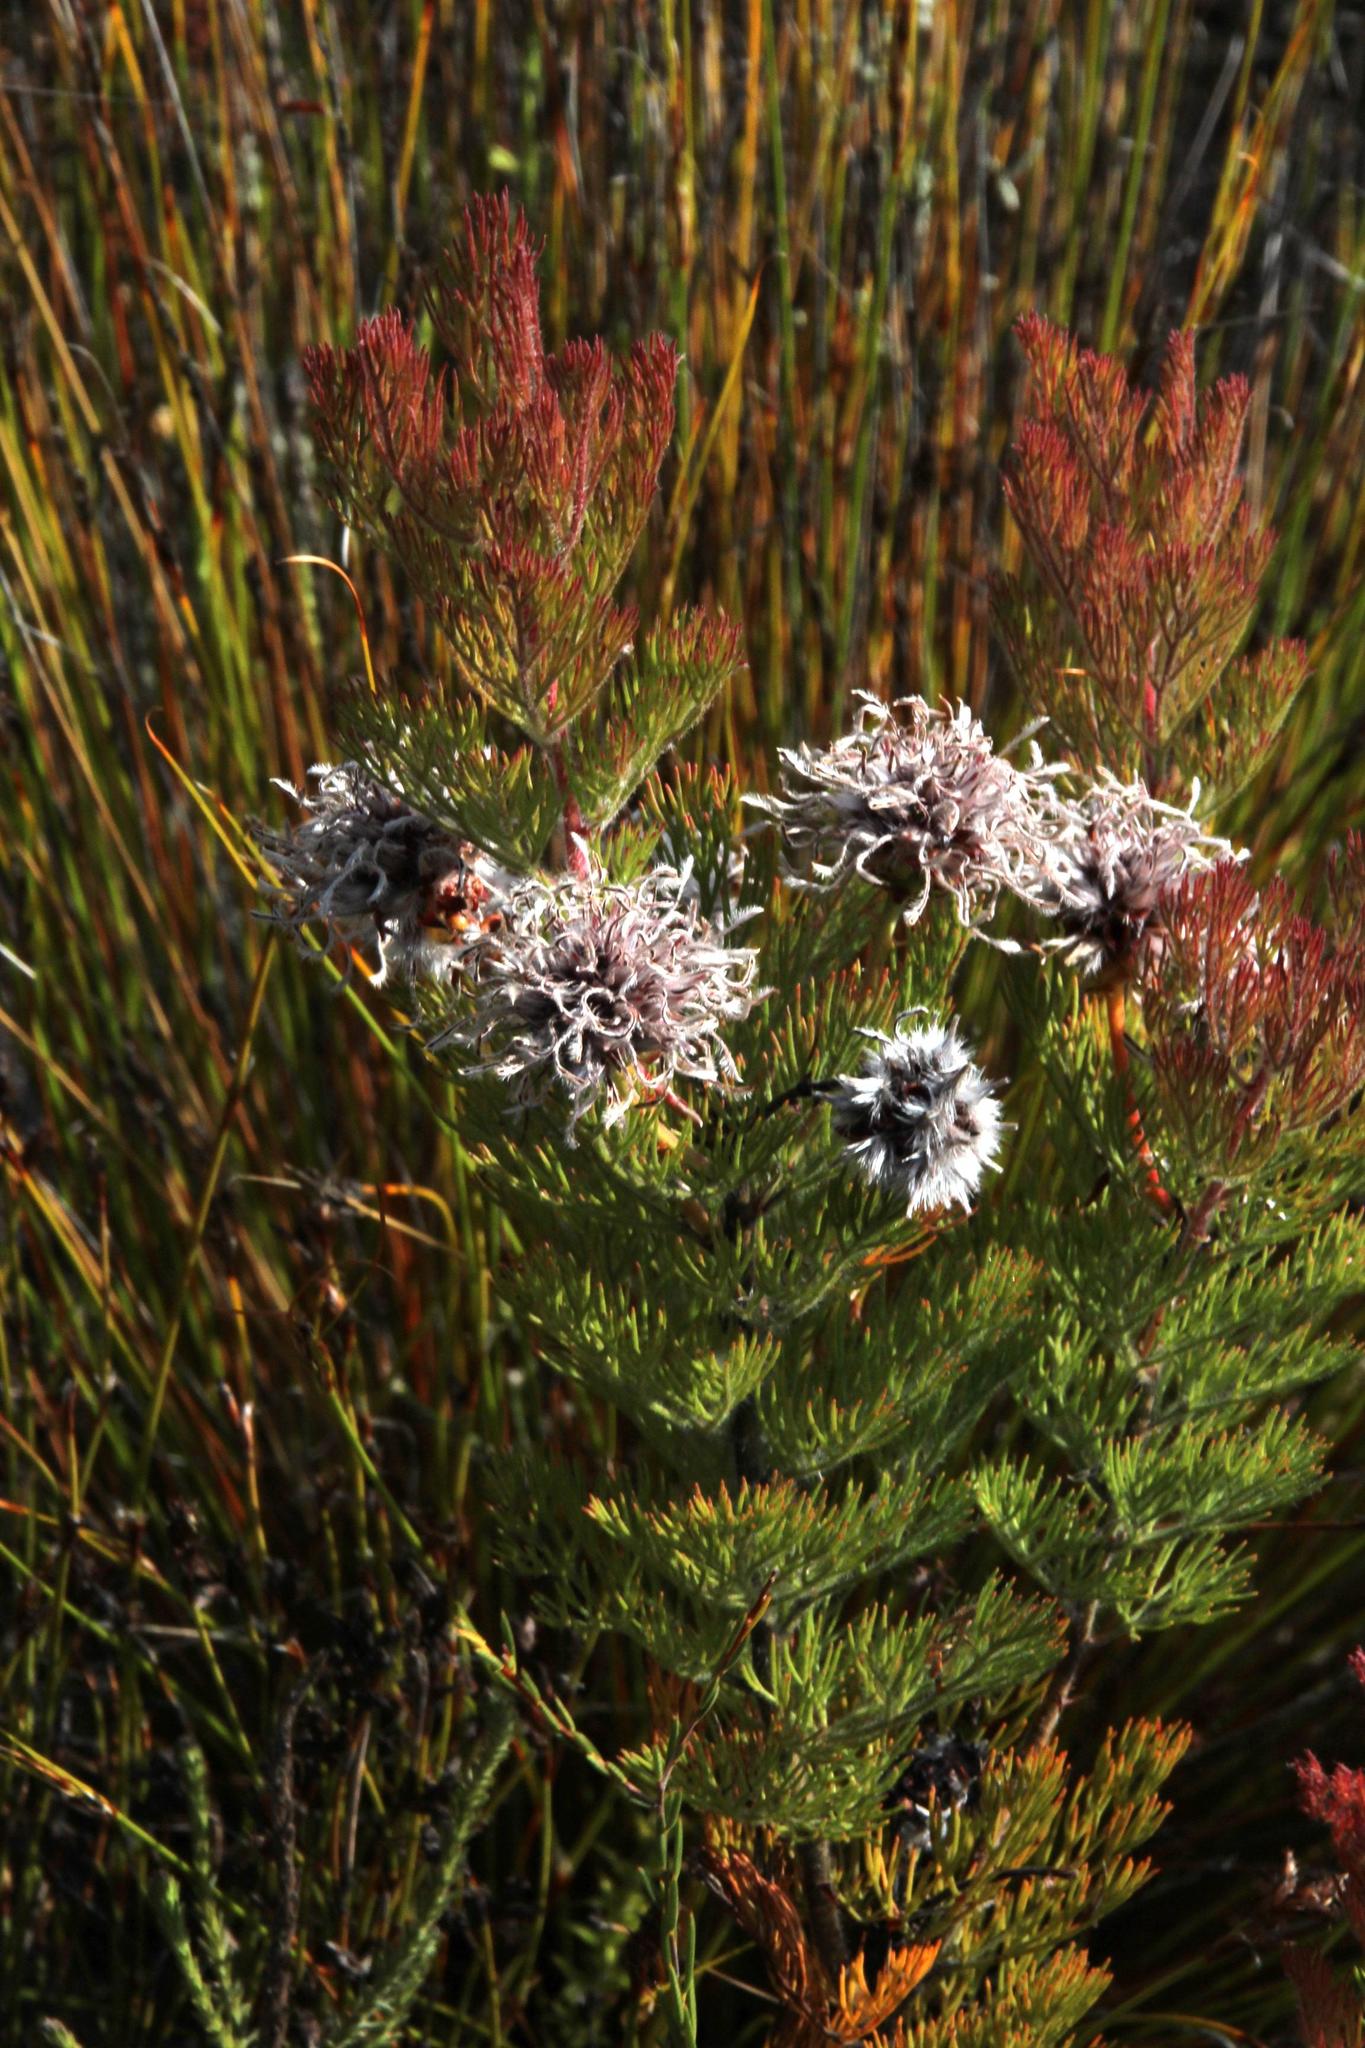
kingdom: Plantae
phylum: Tracheophyta
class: Magnoliopsida
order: Proteales
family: Proteaceae
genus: Serruria
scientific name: Serruria aitonii
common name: Marshmallow spiderhead
